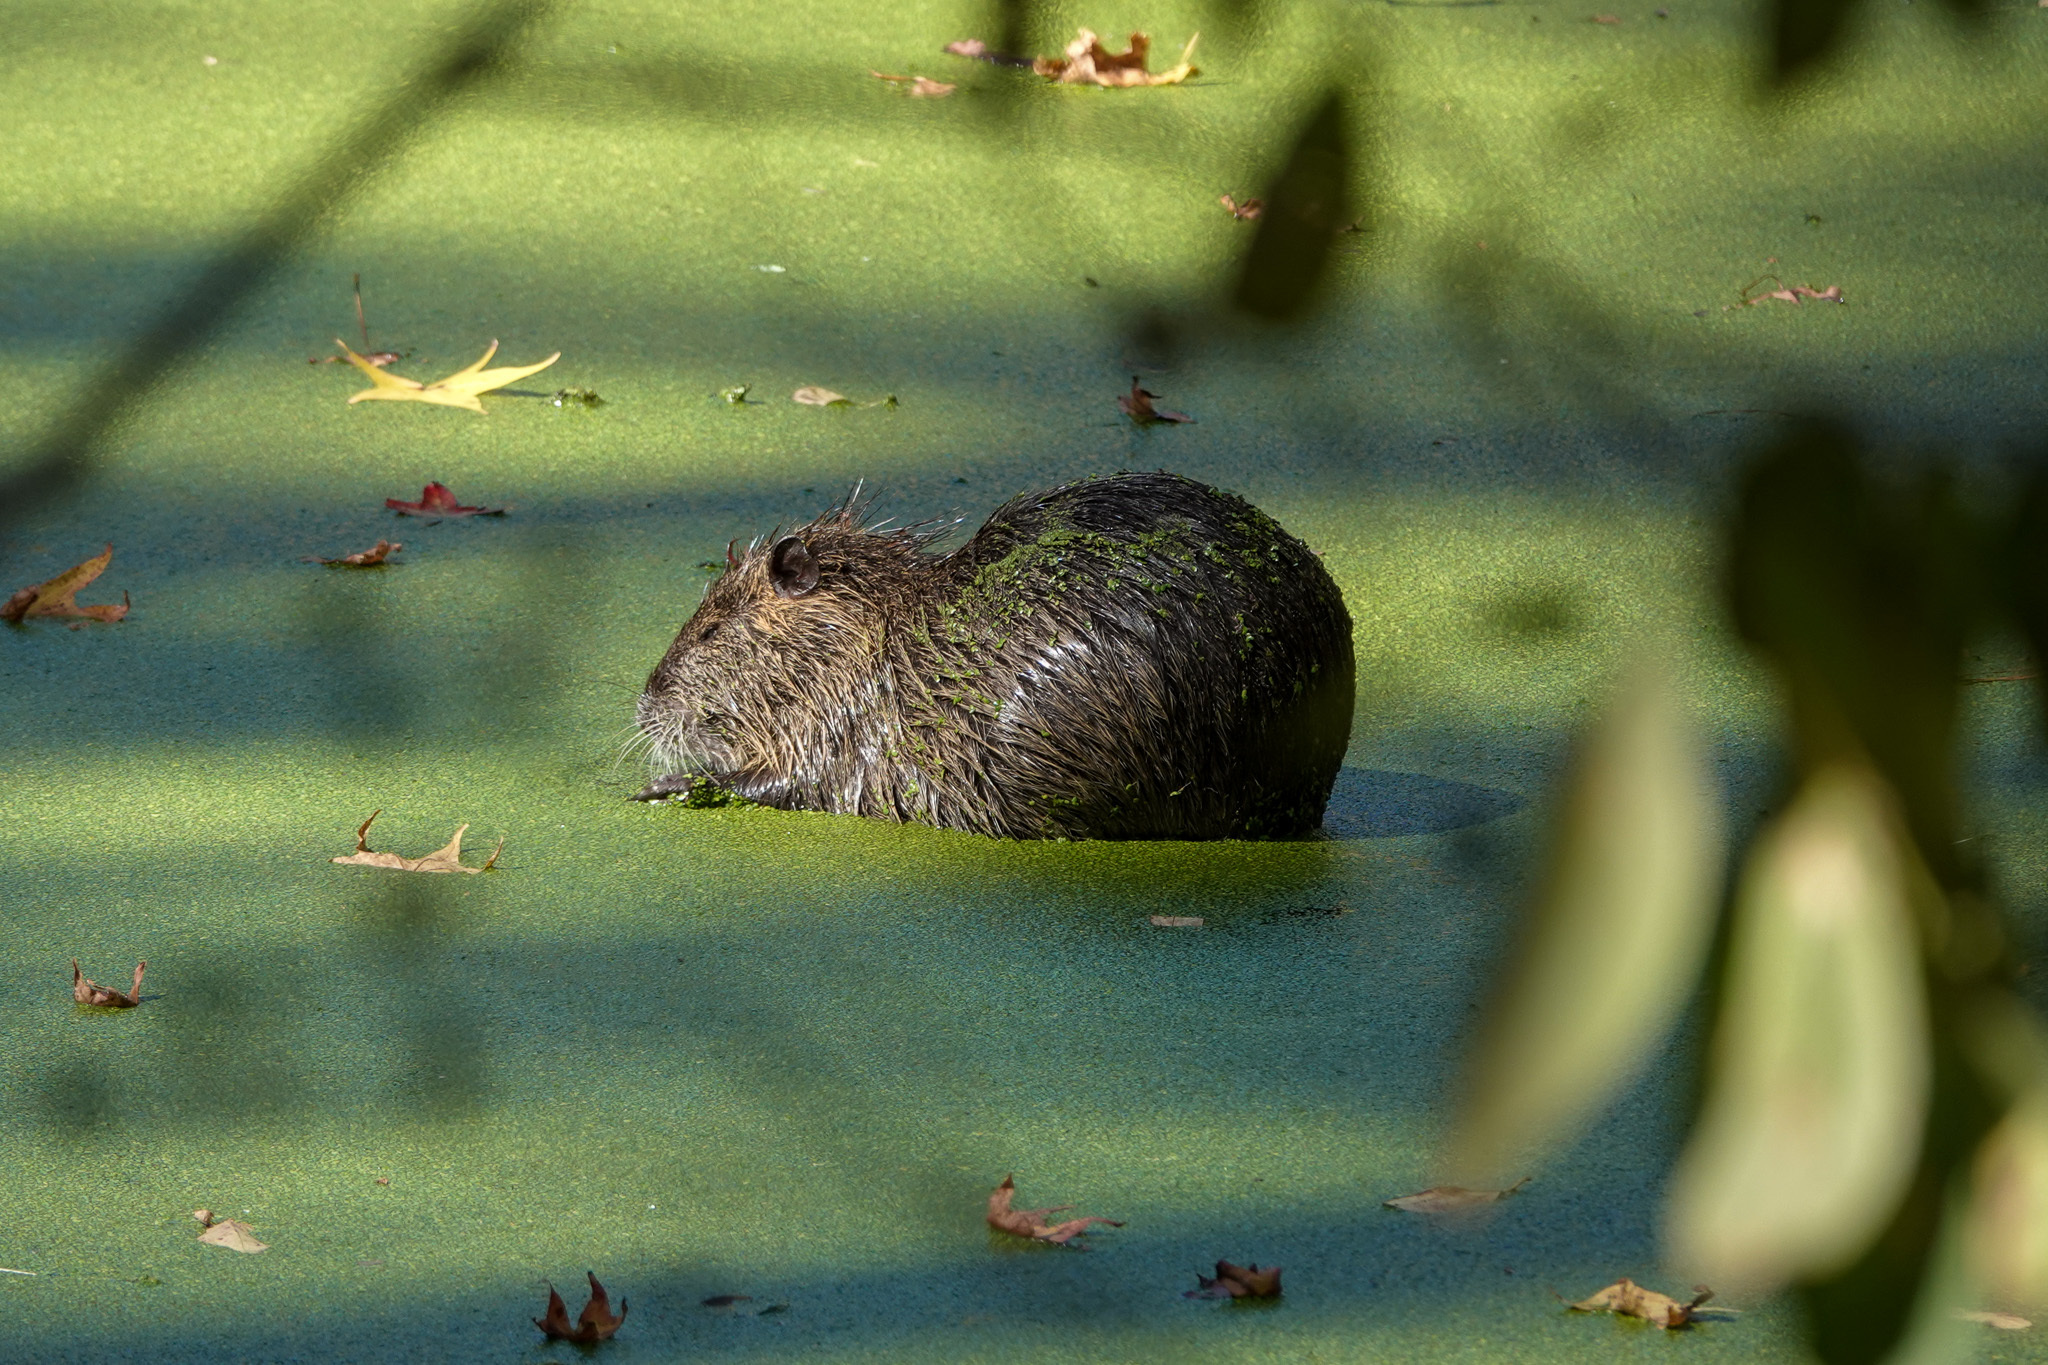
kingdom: Animalia
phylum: Chordata
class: Mammalia
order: Rodentia
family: Myocastoridae
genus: Myocastor
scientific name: Myocastor coypus
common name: Coypu
